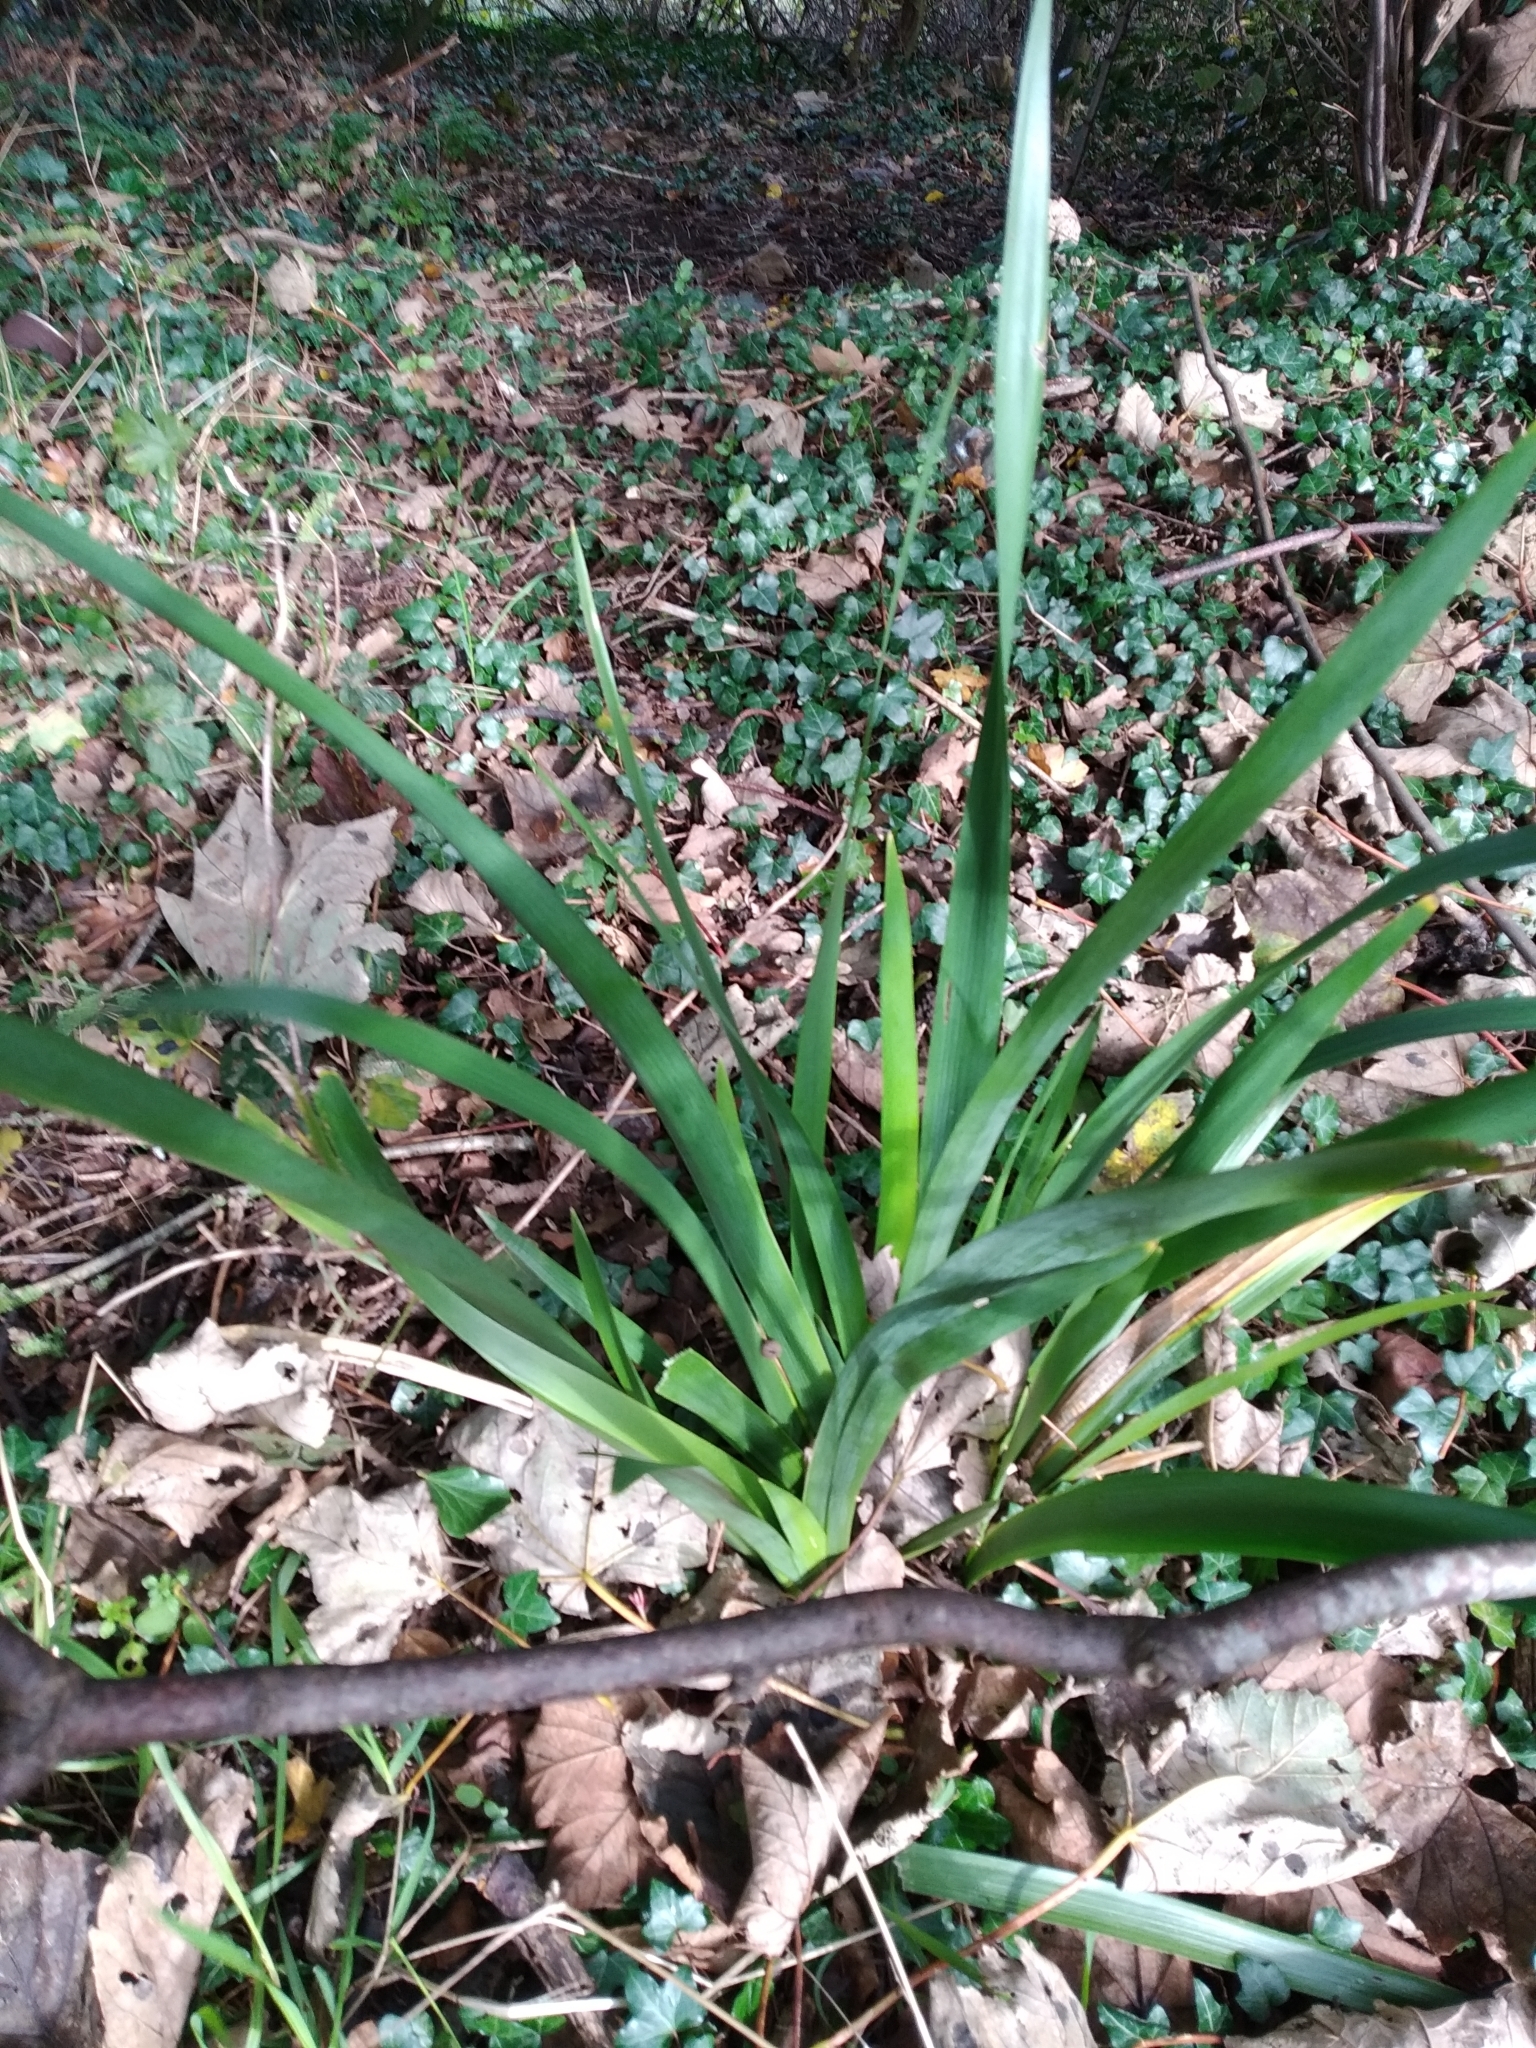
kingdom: Plantae
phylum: Tracheophyta
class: Liliopsida
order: Asparagales
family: Iridaceae
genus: Iris
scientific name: Iris foetidissima
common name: Stinking iris
